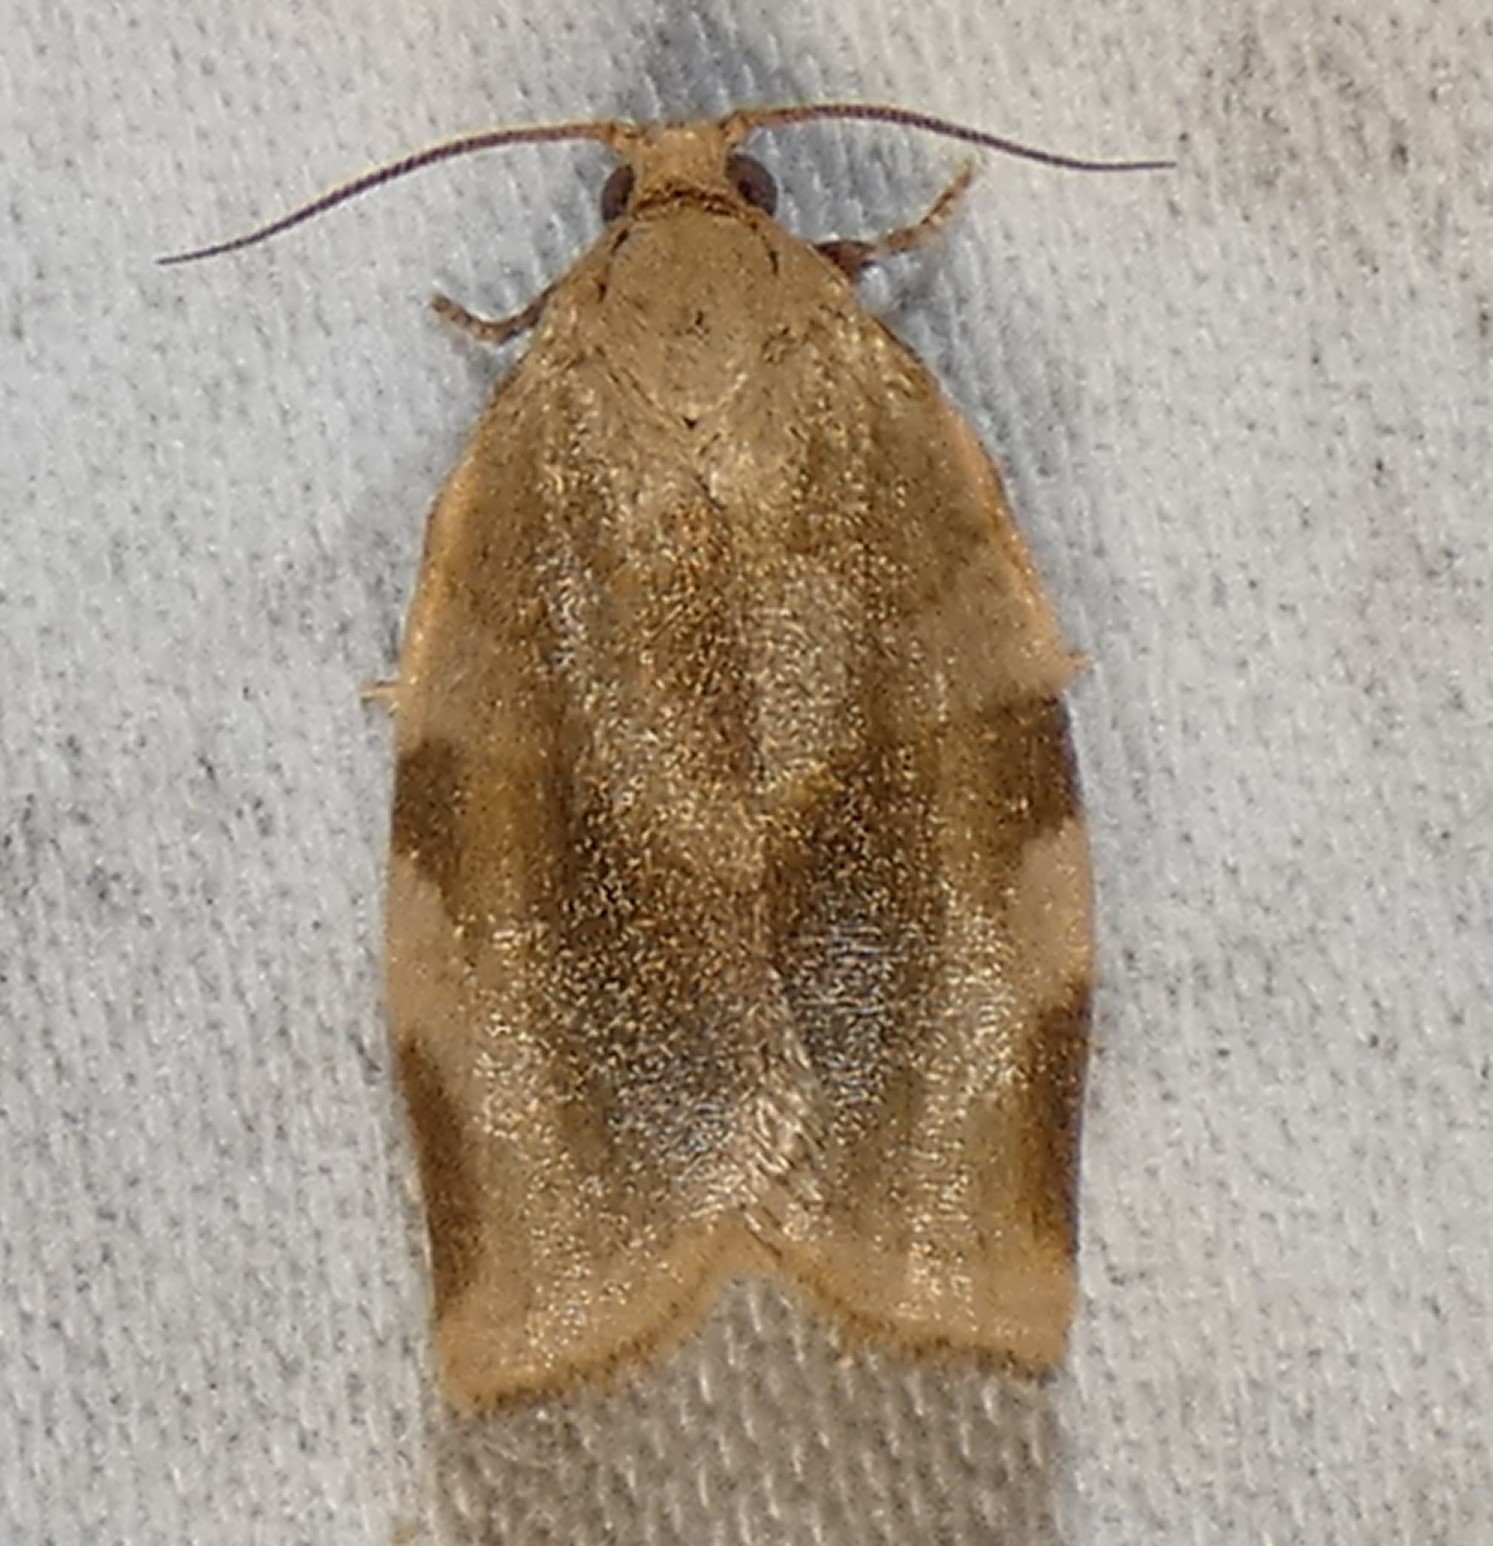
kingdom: Animalia
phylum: Arthropoda
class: Insecta
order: Lepidoptera
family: Tortricidae
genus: Choristoneura
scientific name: Choristoneura fractivittana
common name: Broken-banded leafroller moth
